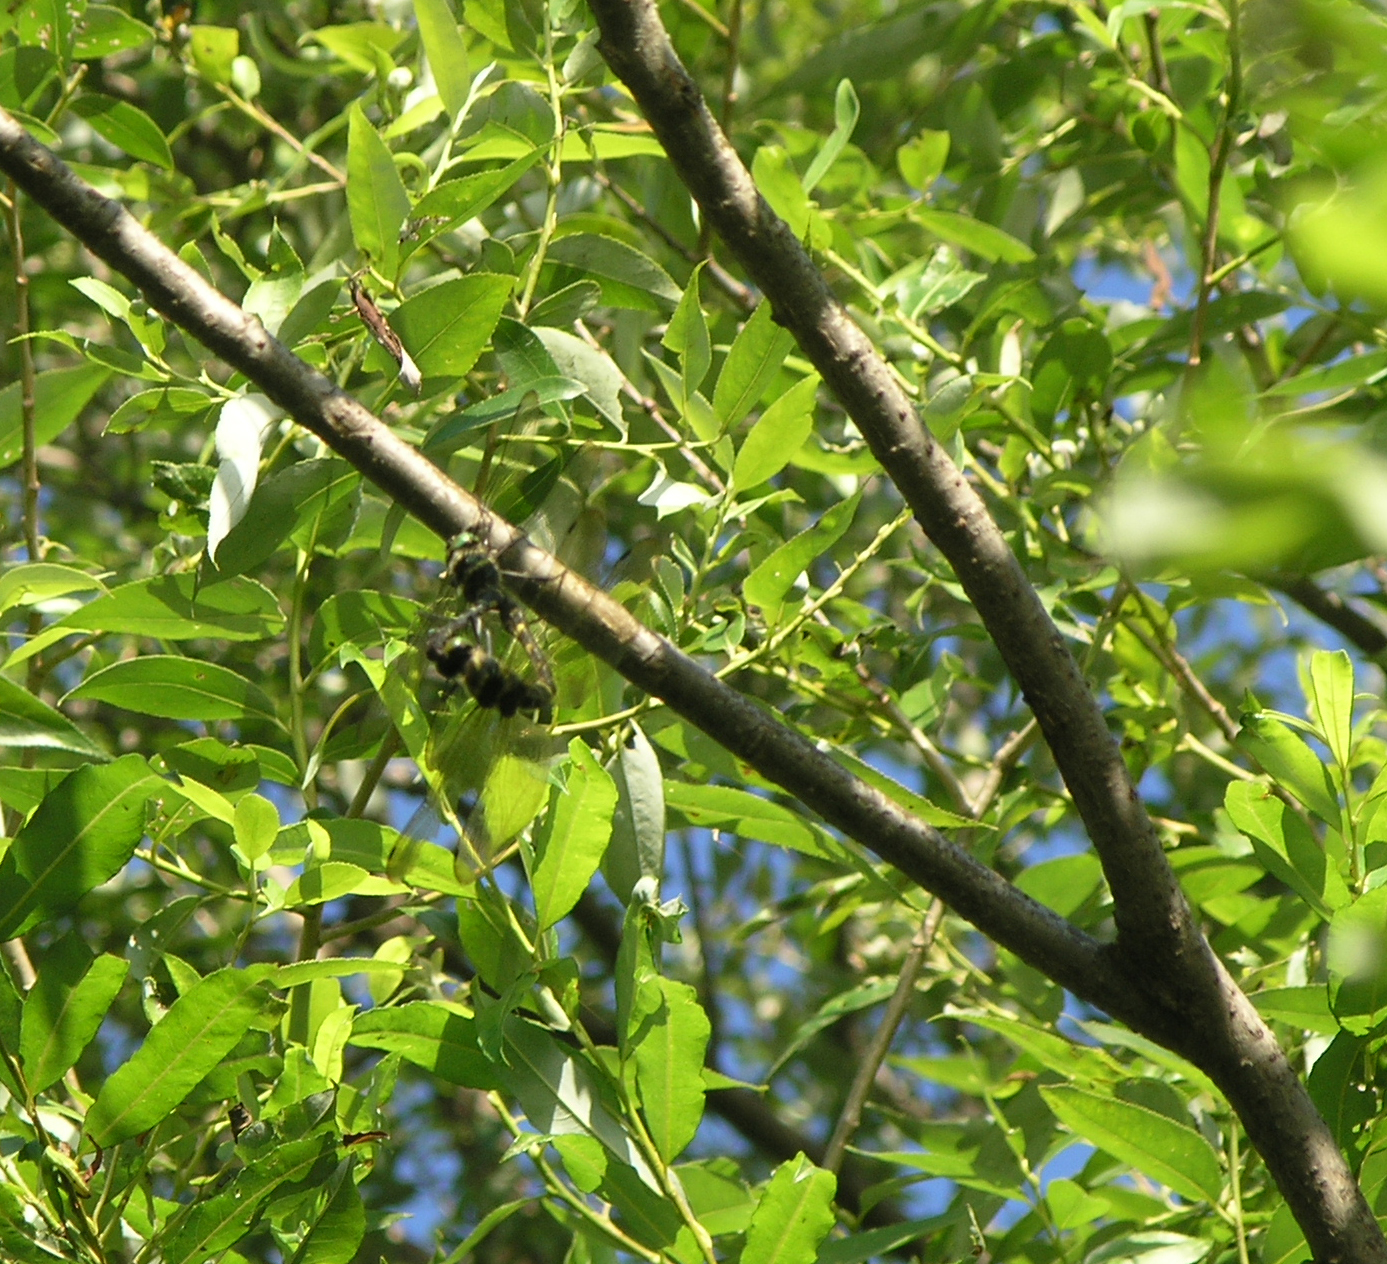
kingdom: Animalia
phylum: Arthropoda
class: Insecta
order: Odonata
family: Macromiidae
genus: Macromia
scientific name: Macromia amphigena
